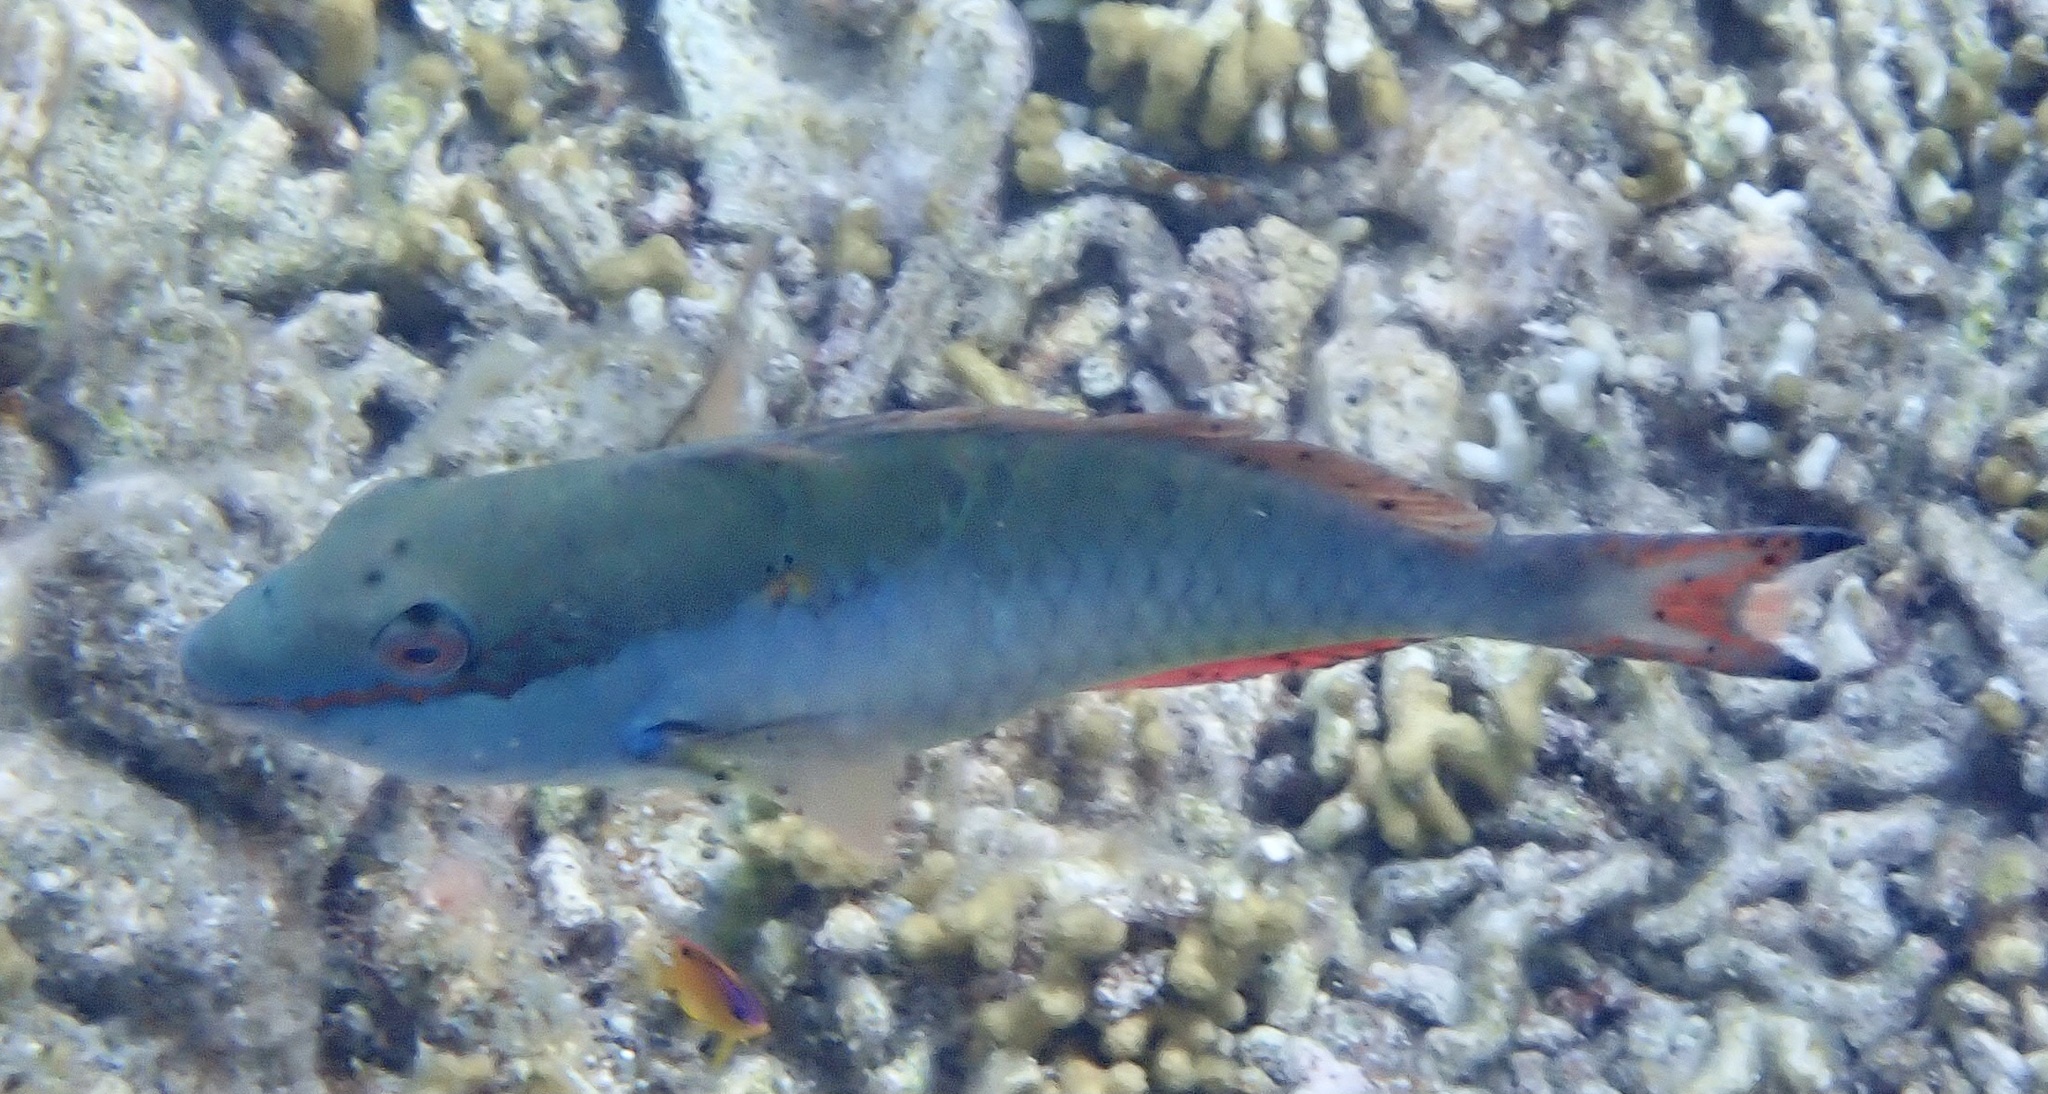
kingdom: Animalia
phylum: Chordata
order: Perciformes
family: Scaridae
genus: Sparisoma
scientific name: Sparisoma aurofrenatum
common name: Redband parrotfish
